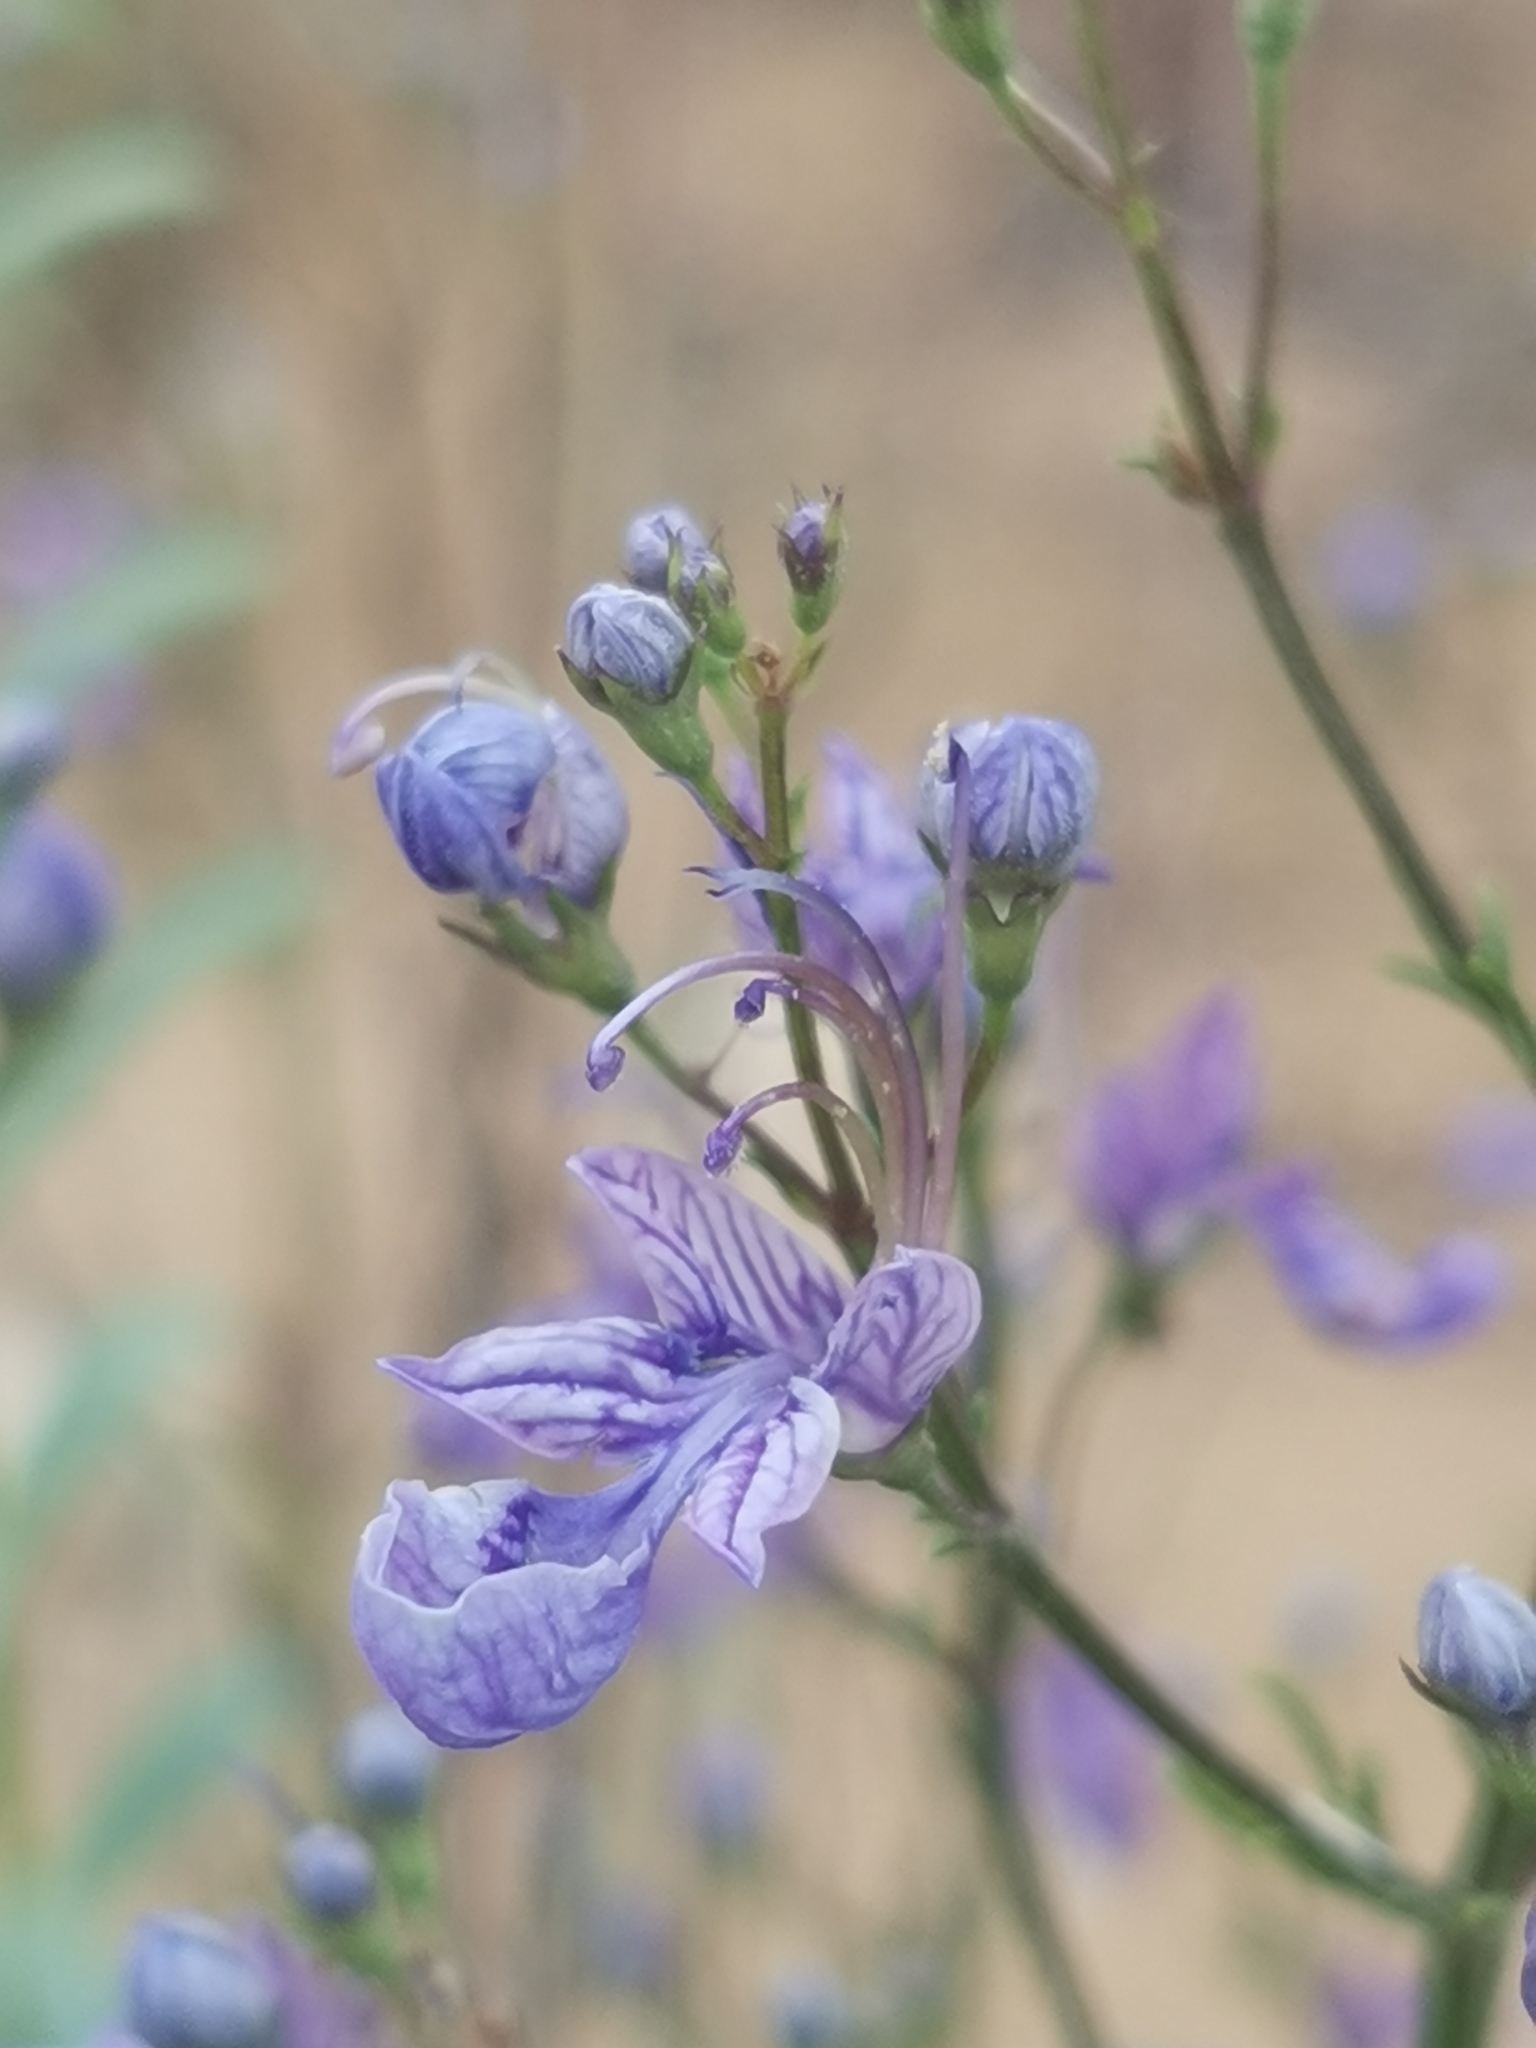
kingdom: Plantae
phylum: Tracheophyta
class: Magnoliopsida
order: Lamiales
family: Lamiaceae
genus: Teucrium
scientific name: Teucrium orientale
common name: Oriental germander
